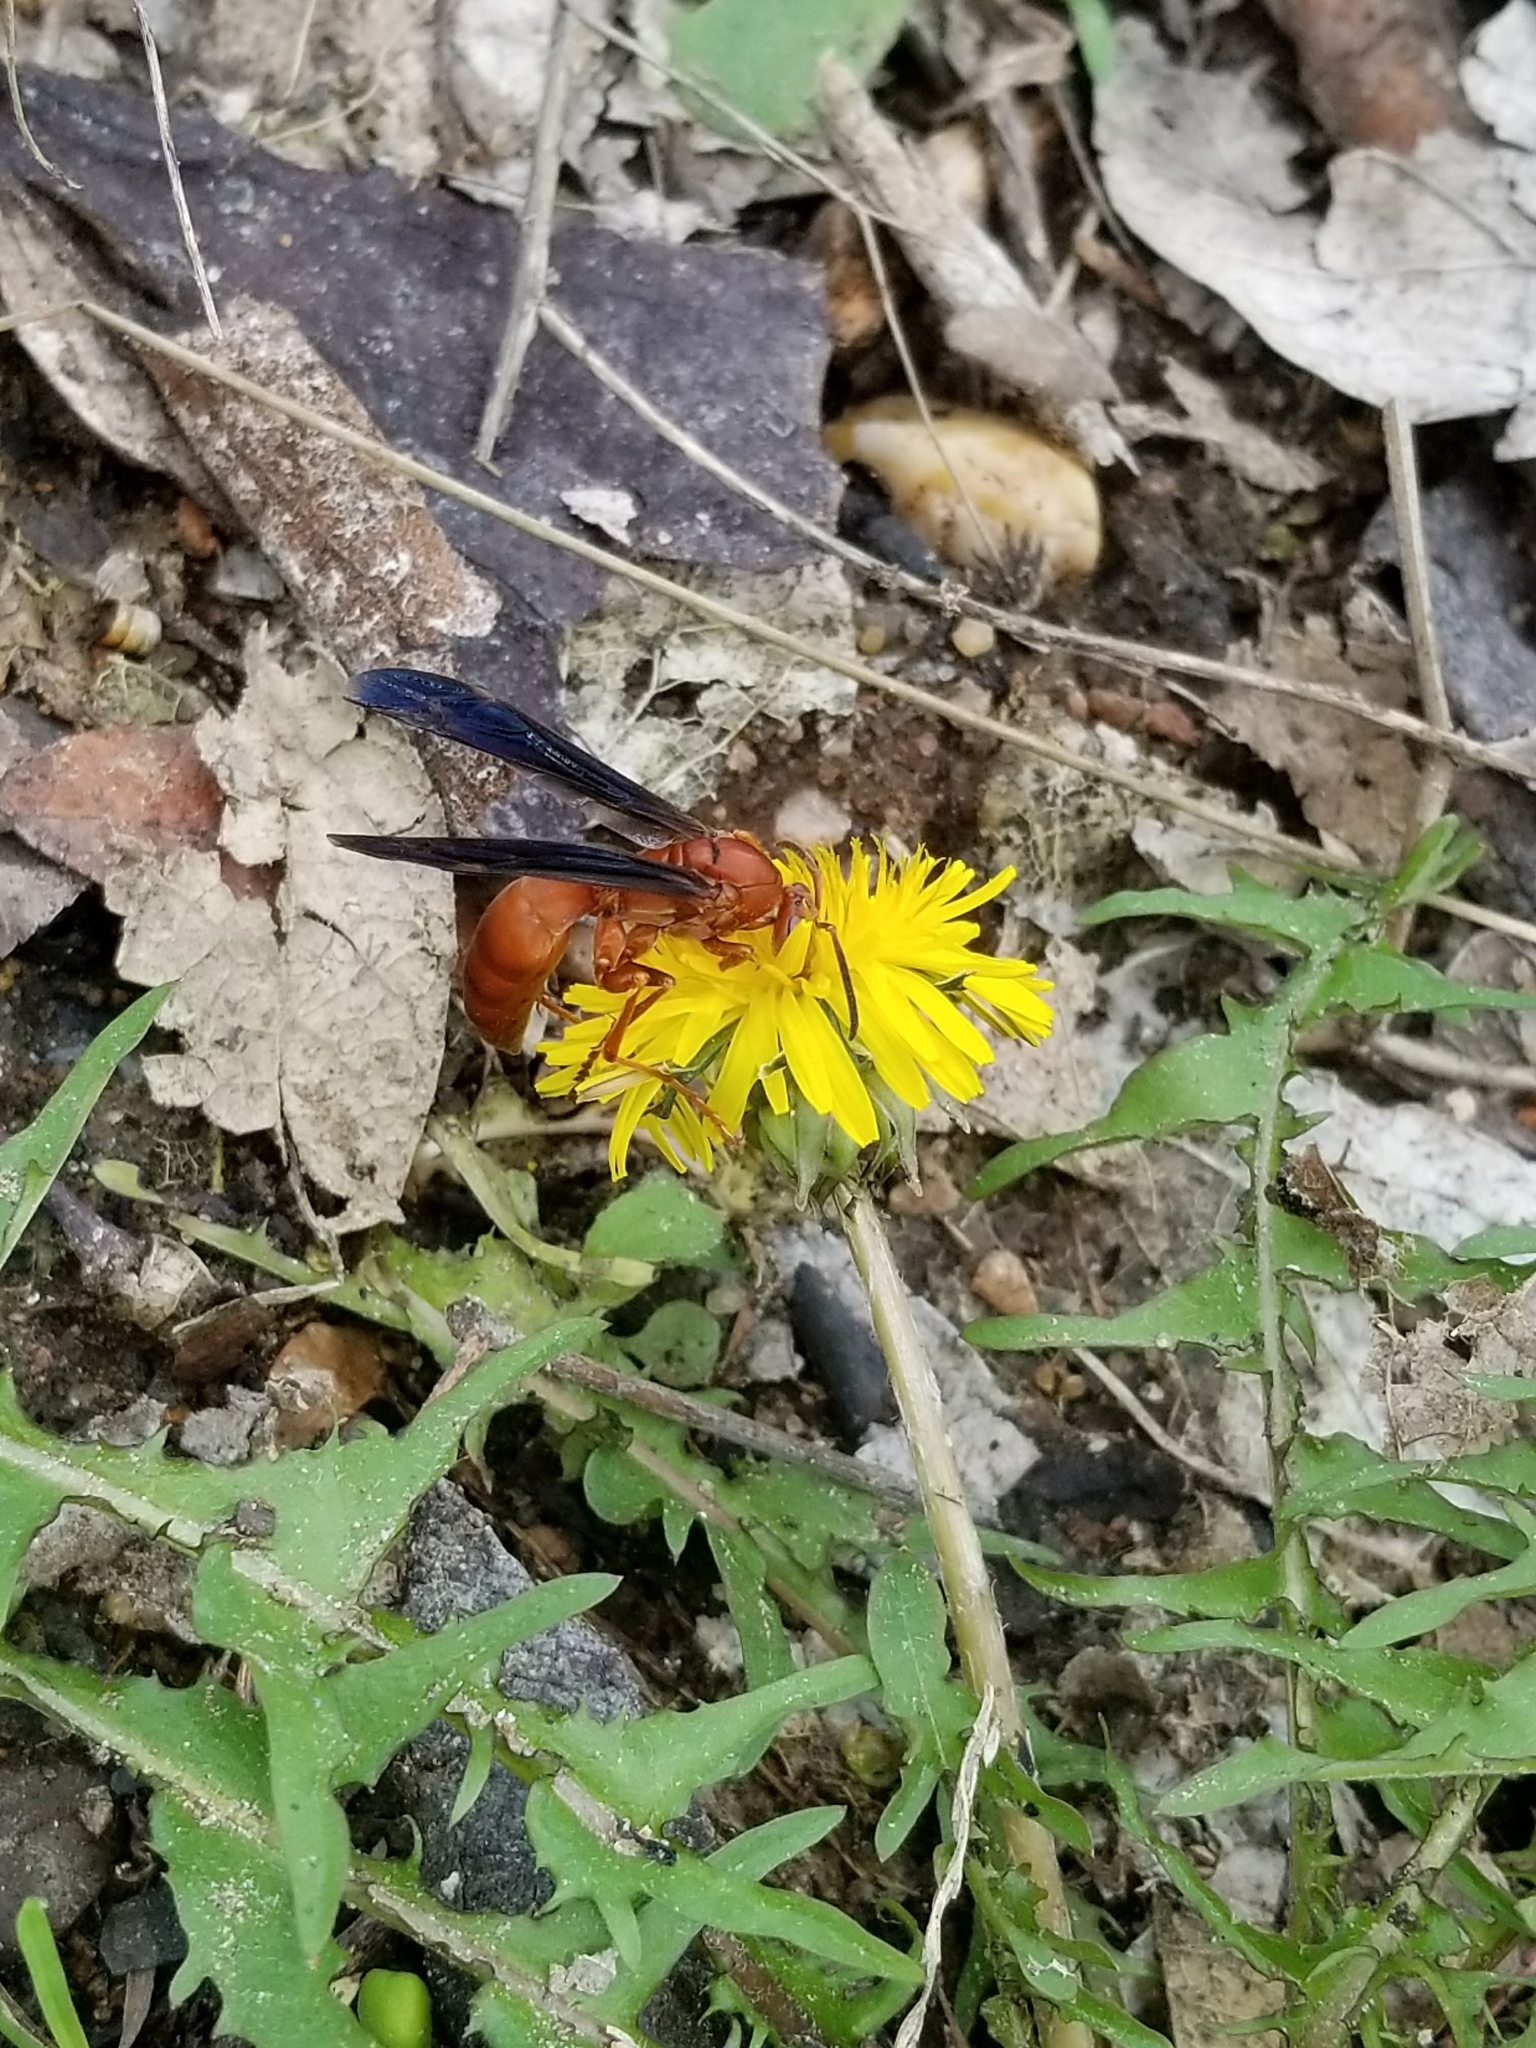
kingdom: Animalia
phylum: Arthropoda
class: Insecta
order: Hymenoptera
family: Eumenidae
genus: Polistes
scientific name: Polistes carolina
